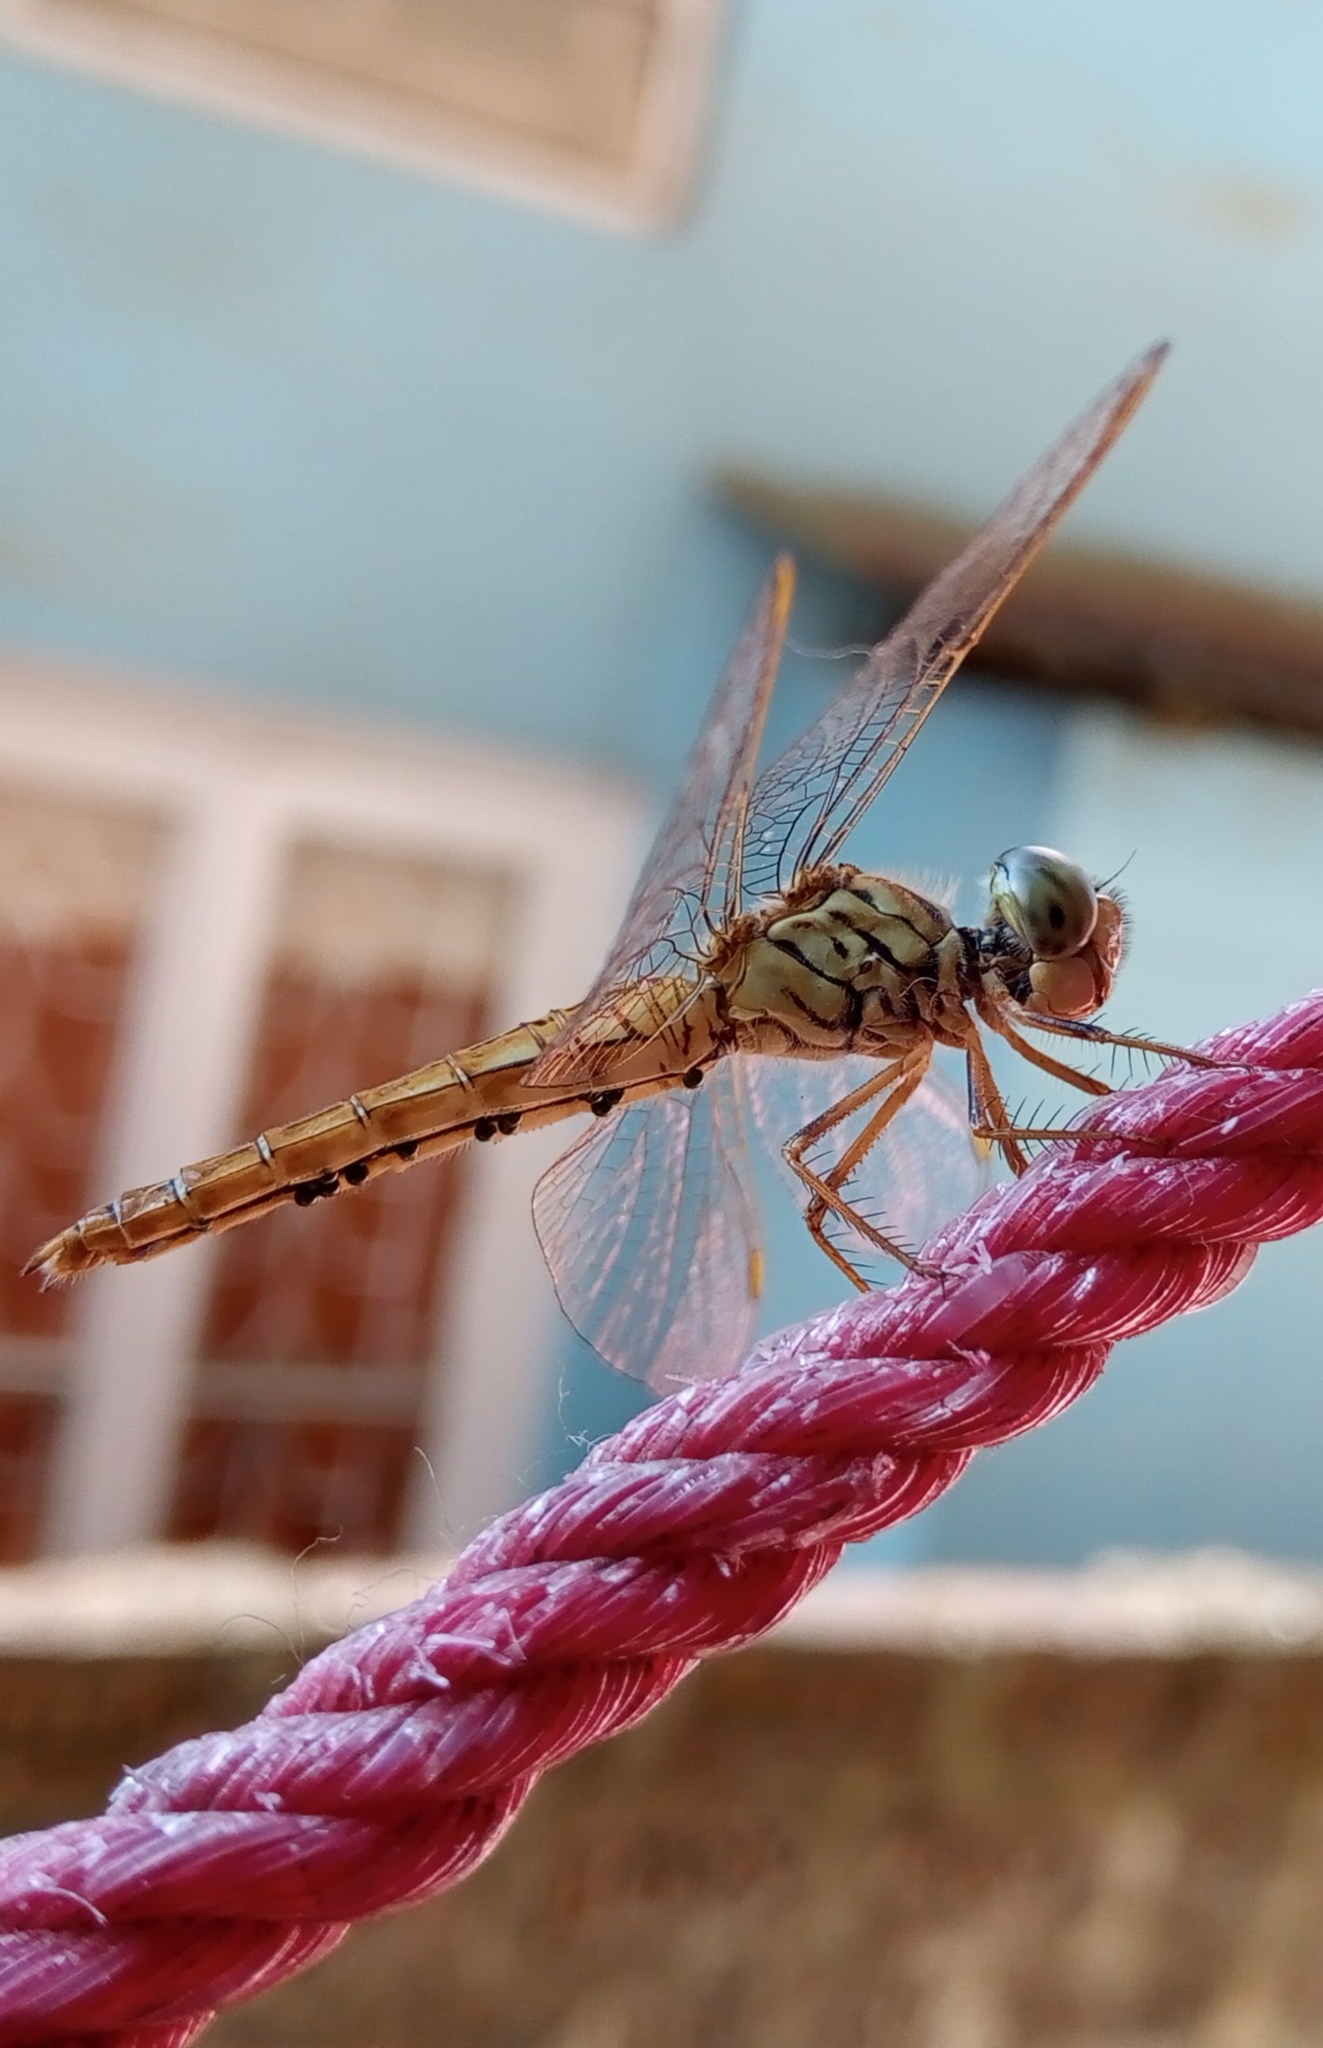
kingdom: Animalia
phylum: Arthropoda
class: Insecta
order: Odonata
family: Libellulidae
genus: Brachythemis
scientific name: Brachythemis contaminata
